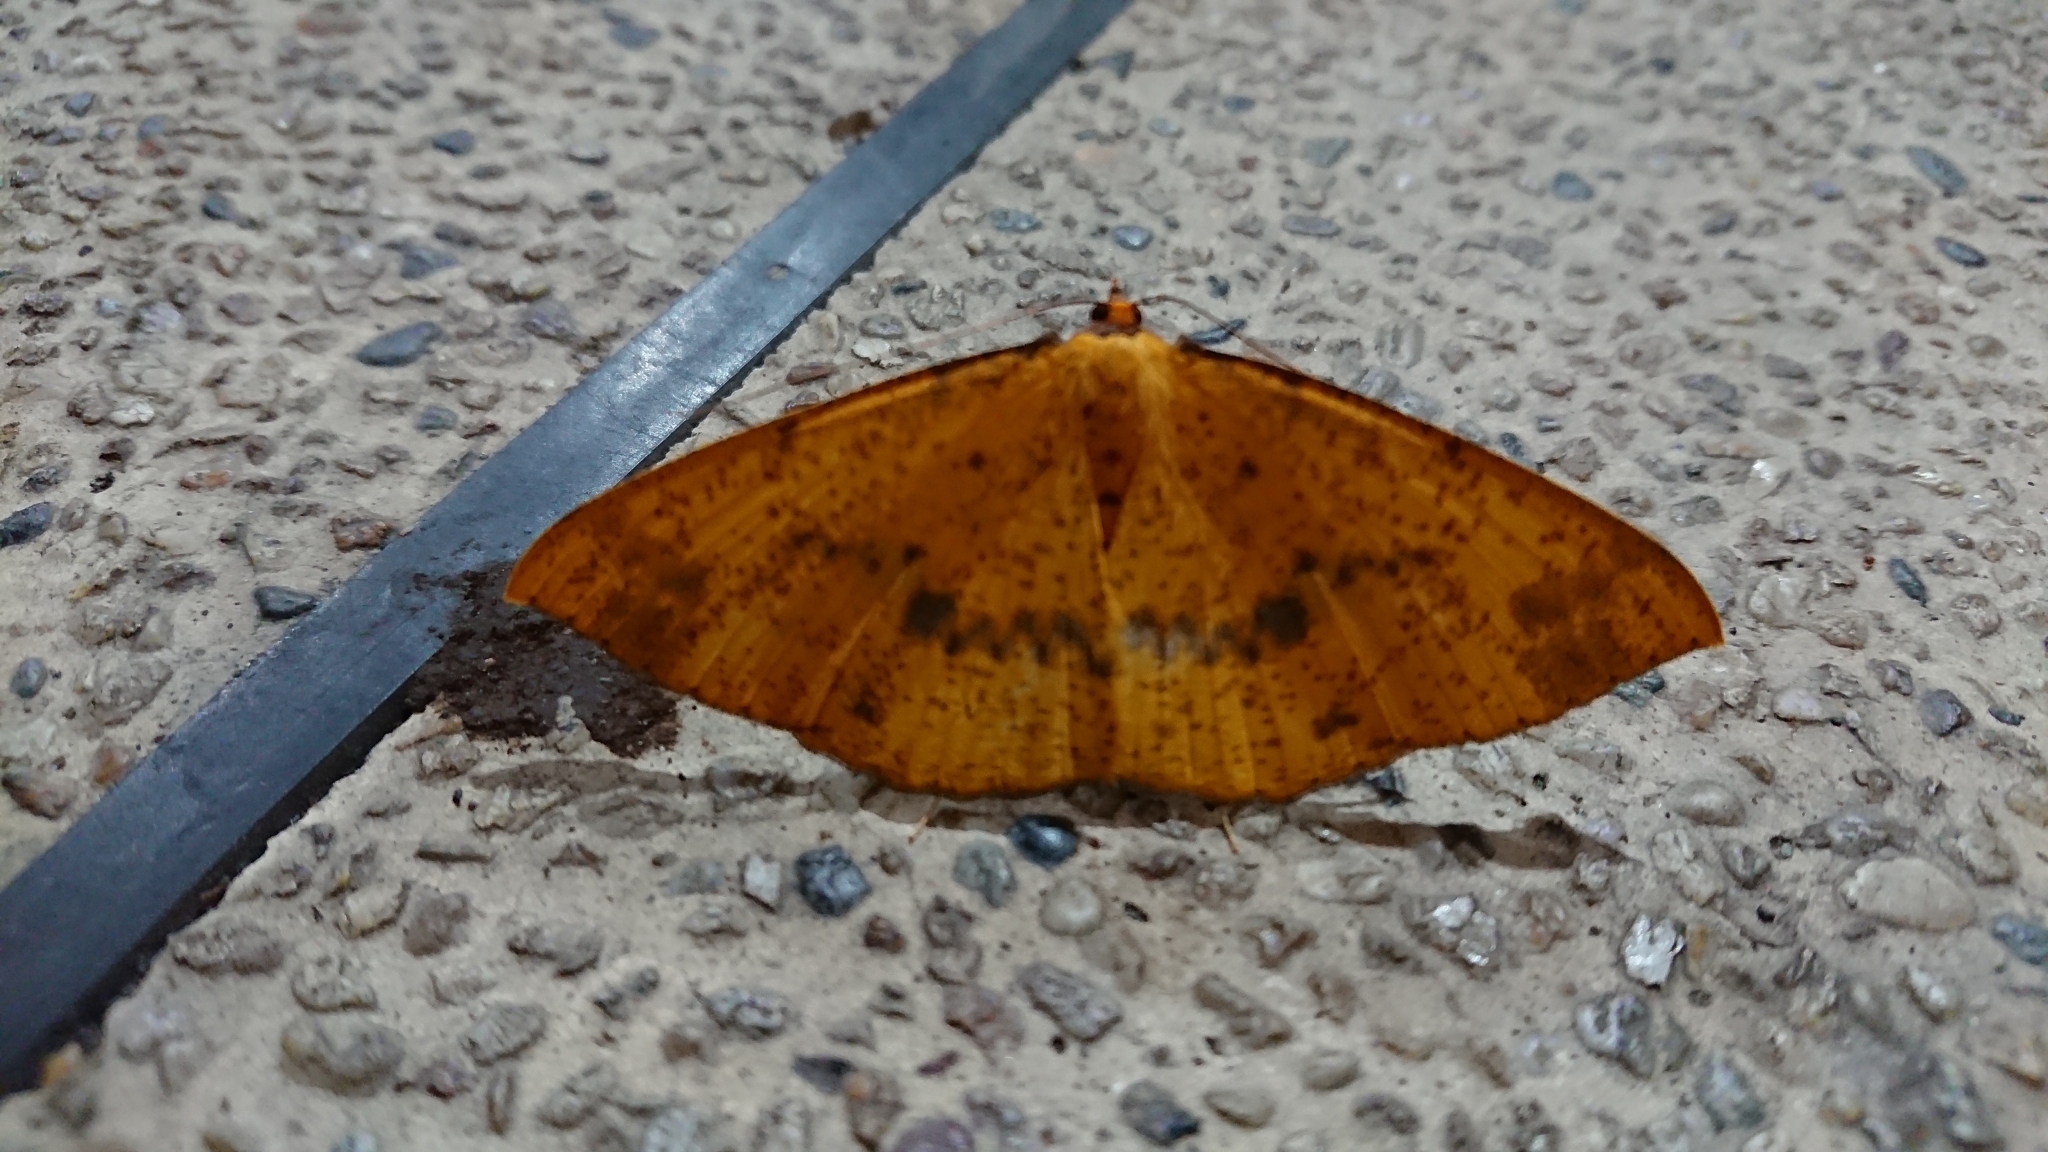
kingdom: Animalia
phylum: Arthropoda
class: Insecta
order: Lepidoptera
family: Geometridae
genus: Eumelea
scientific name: Eumelea ludovicata
